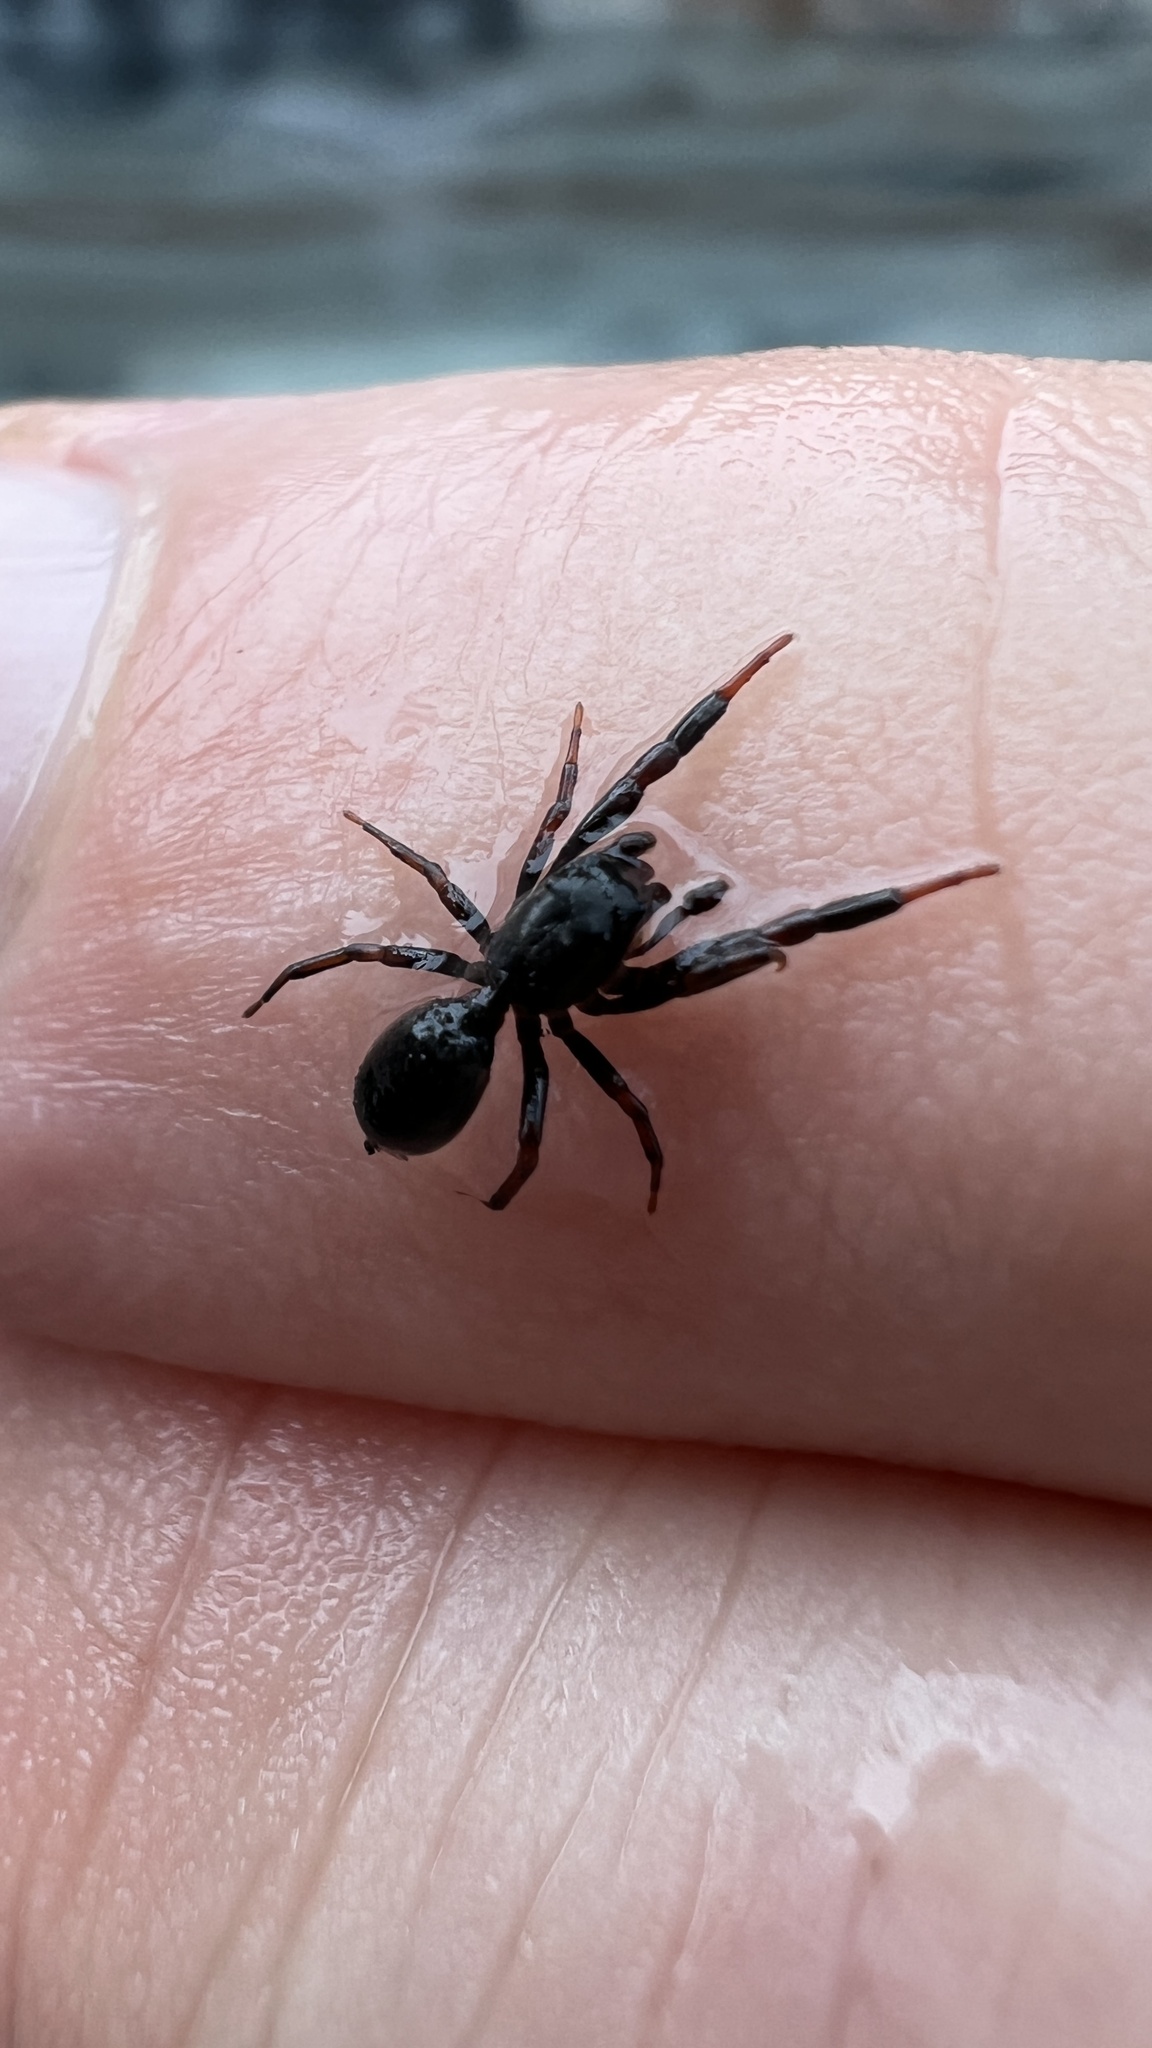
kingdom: Animalia
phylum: Arthropoda
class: Arachnida
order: Araneae
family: Salticidae
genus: Tutelina
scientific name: Tutelina harti
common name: Hart's jumping spider
